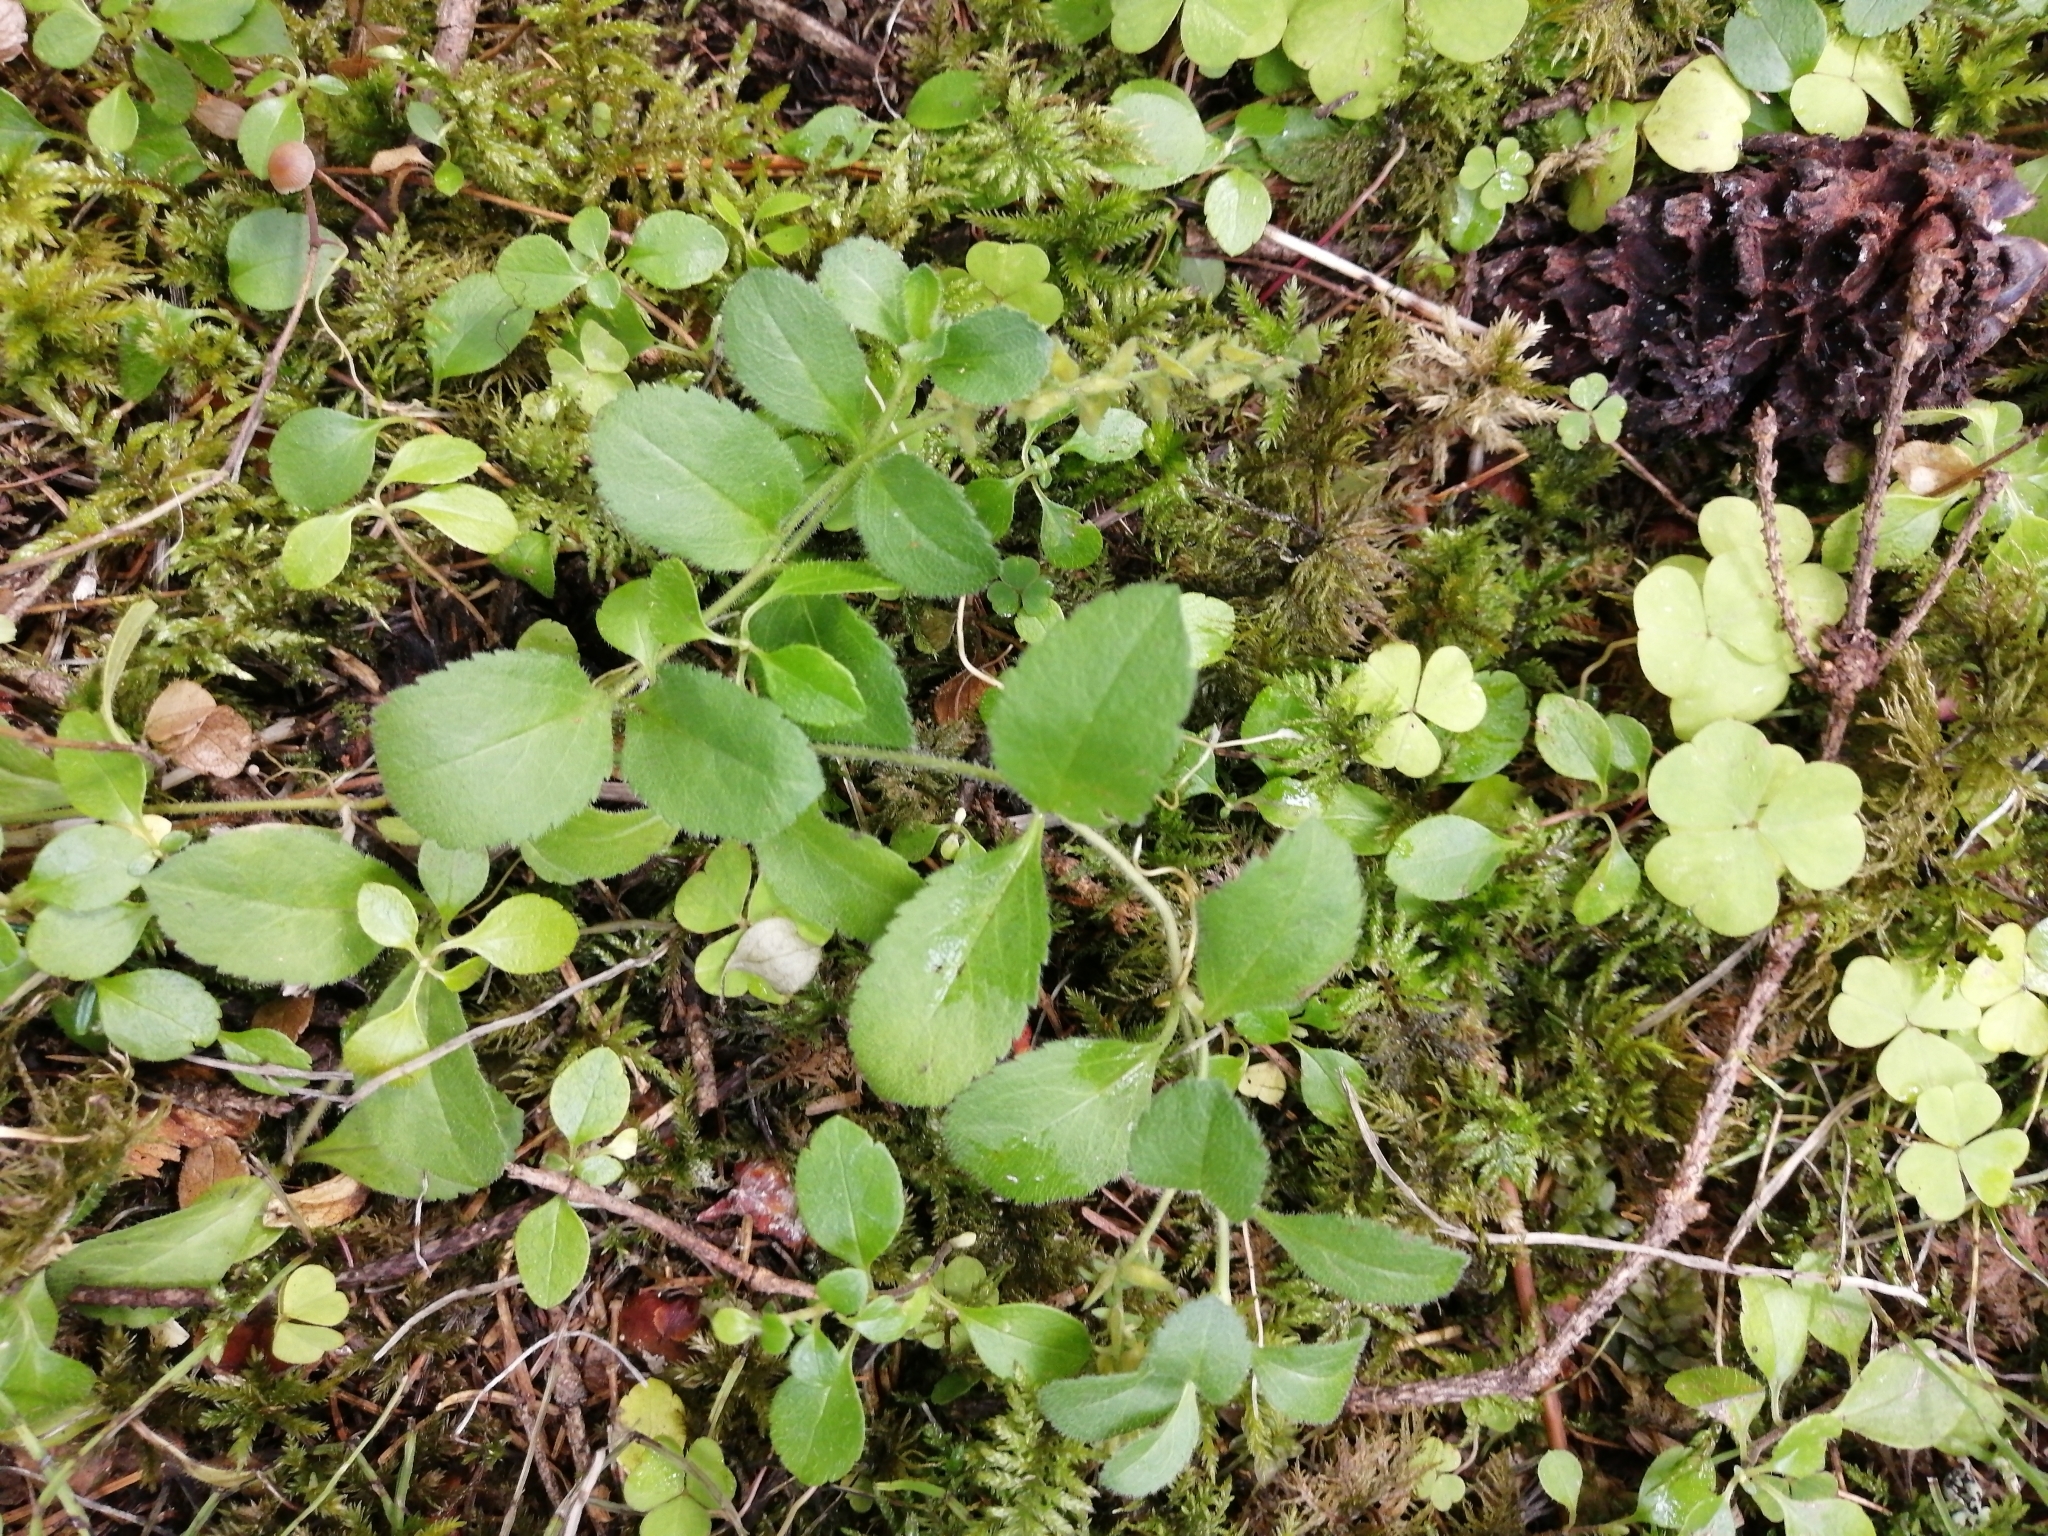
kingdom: Plantae
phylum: Tracheophyta
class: Magnoliopsida
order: Lamiales
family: Plantaginaceae
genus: Veronica
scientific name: Veronica officinalis
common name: Common speedwell
